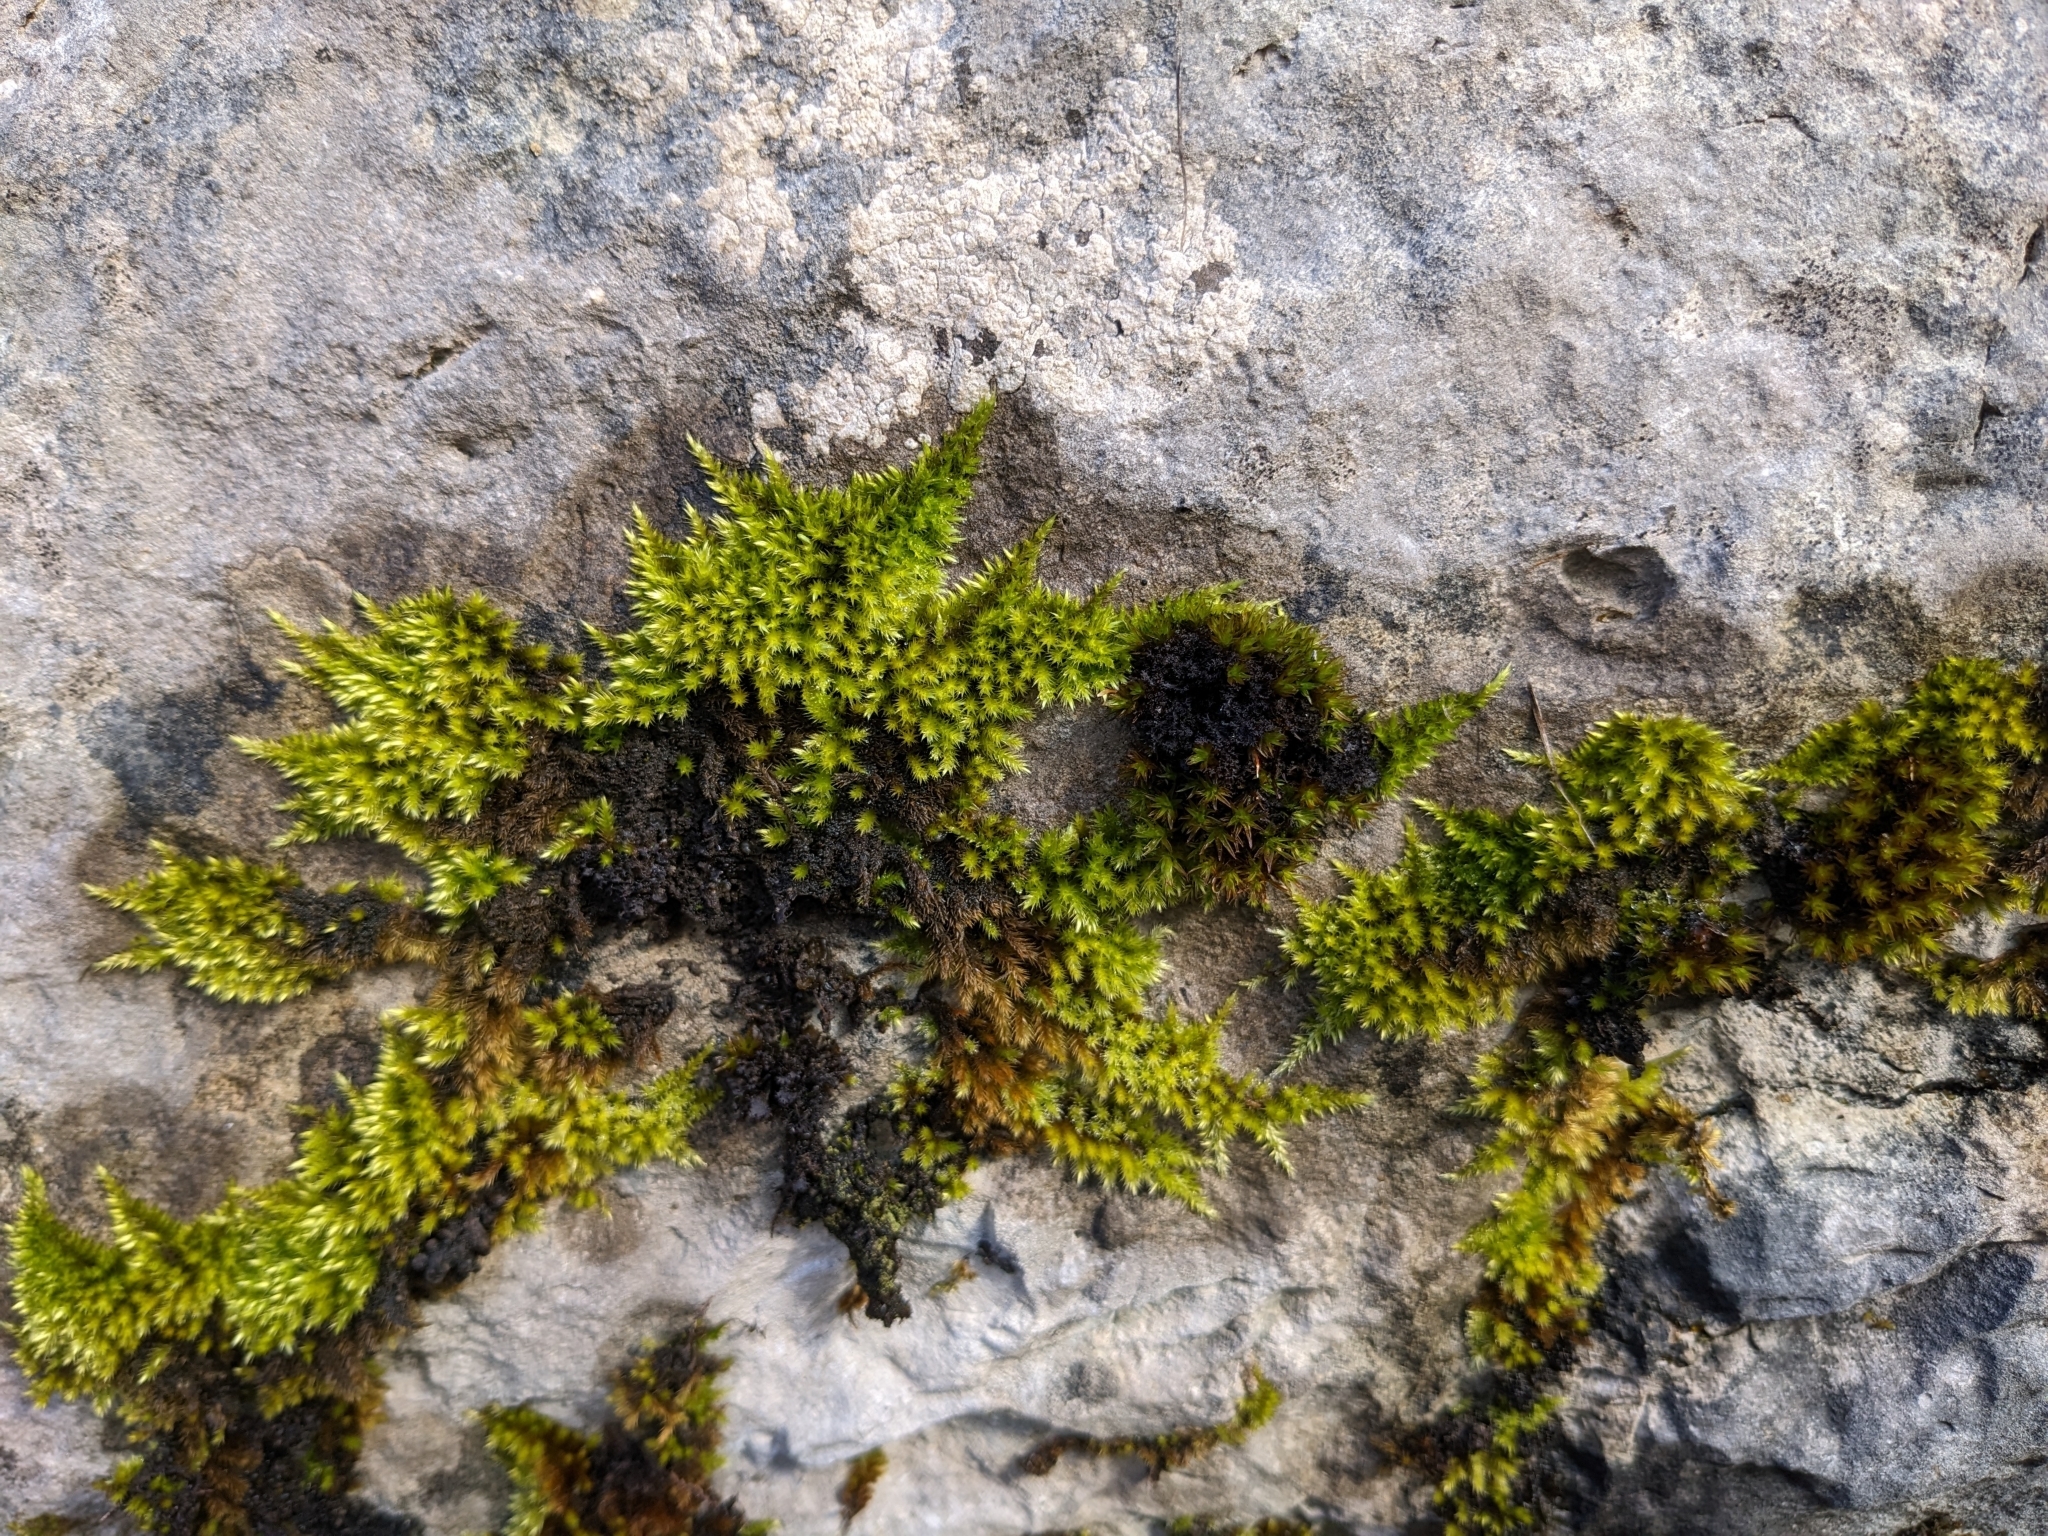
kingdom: Plantae
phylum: Bryophyta
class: Bryopsida
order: Hypnales
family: Brachytheciaceae
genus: Homalothecium
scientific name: Homalothecium sericeum
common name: Silky wall feather-moss
